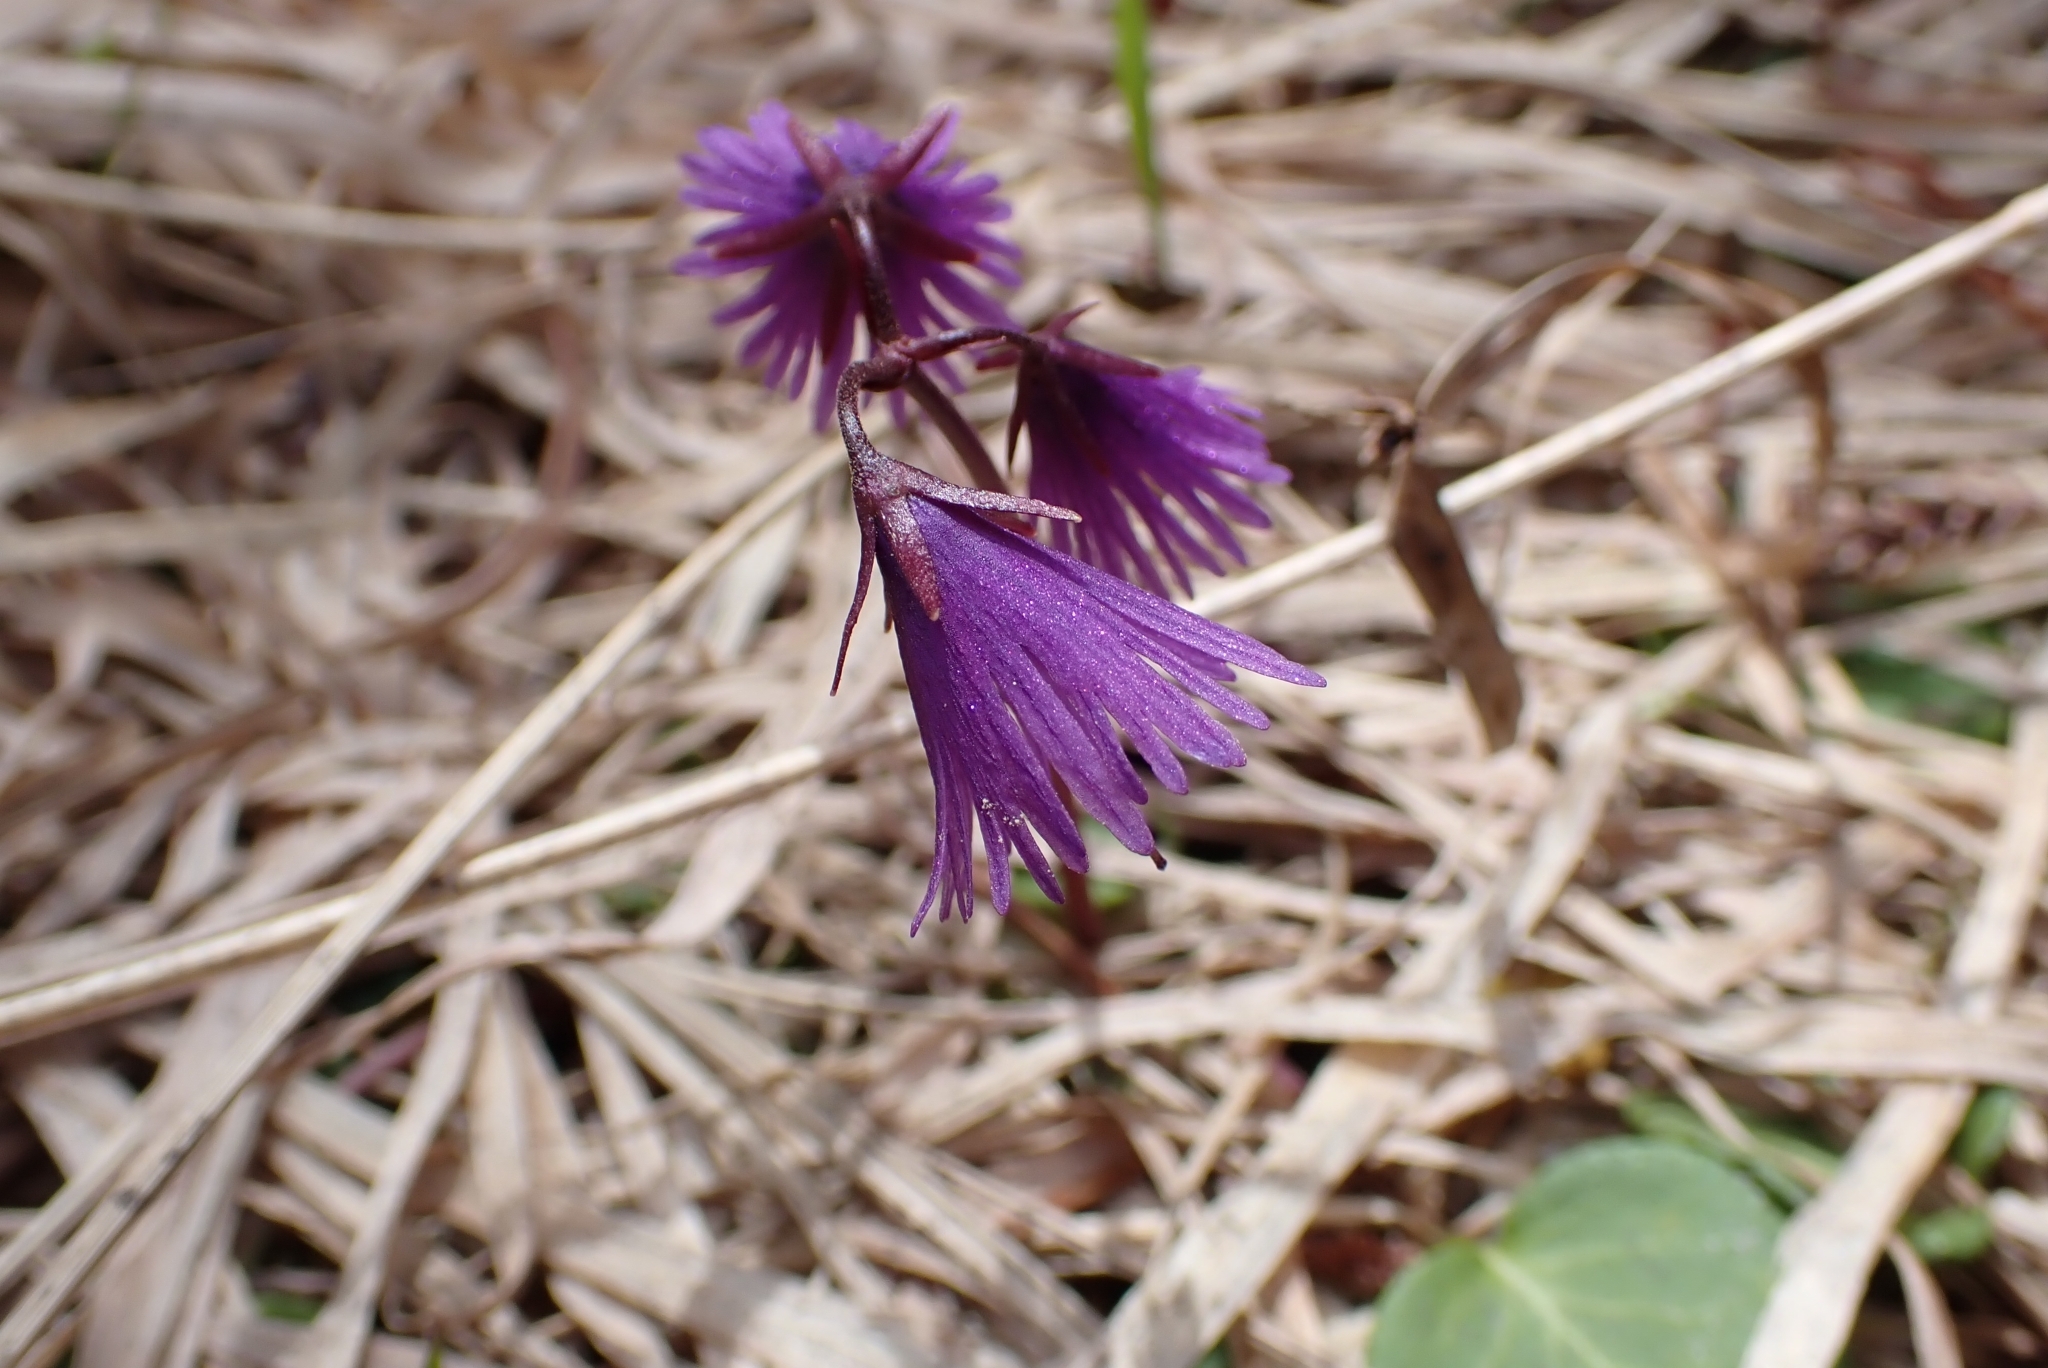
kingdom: Plantae
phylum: Tracheophyta
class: Magnoliopsida
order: Ericales
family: Primulaceae
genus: Soldanella
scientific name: Soldanella alpina
